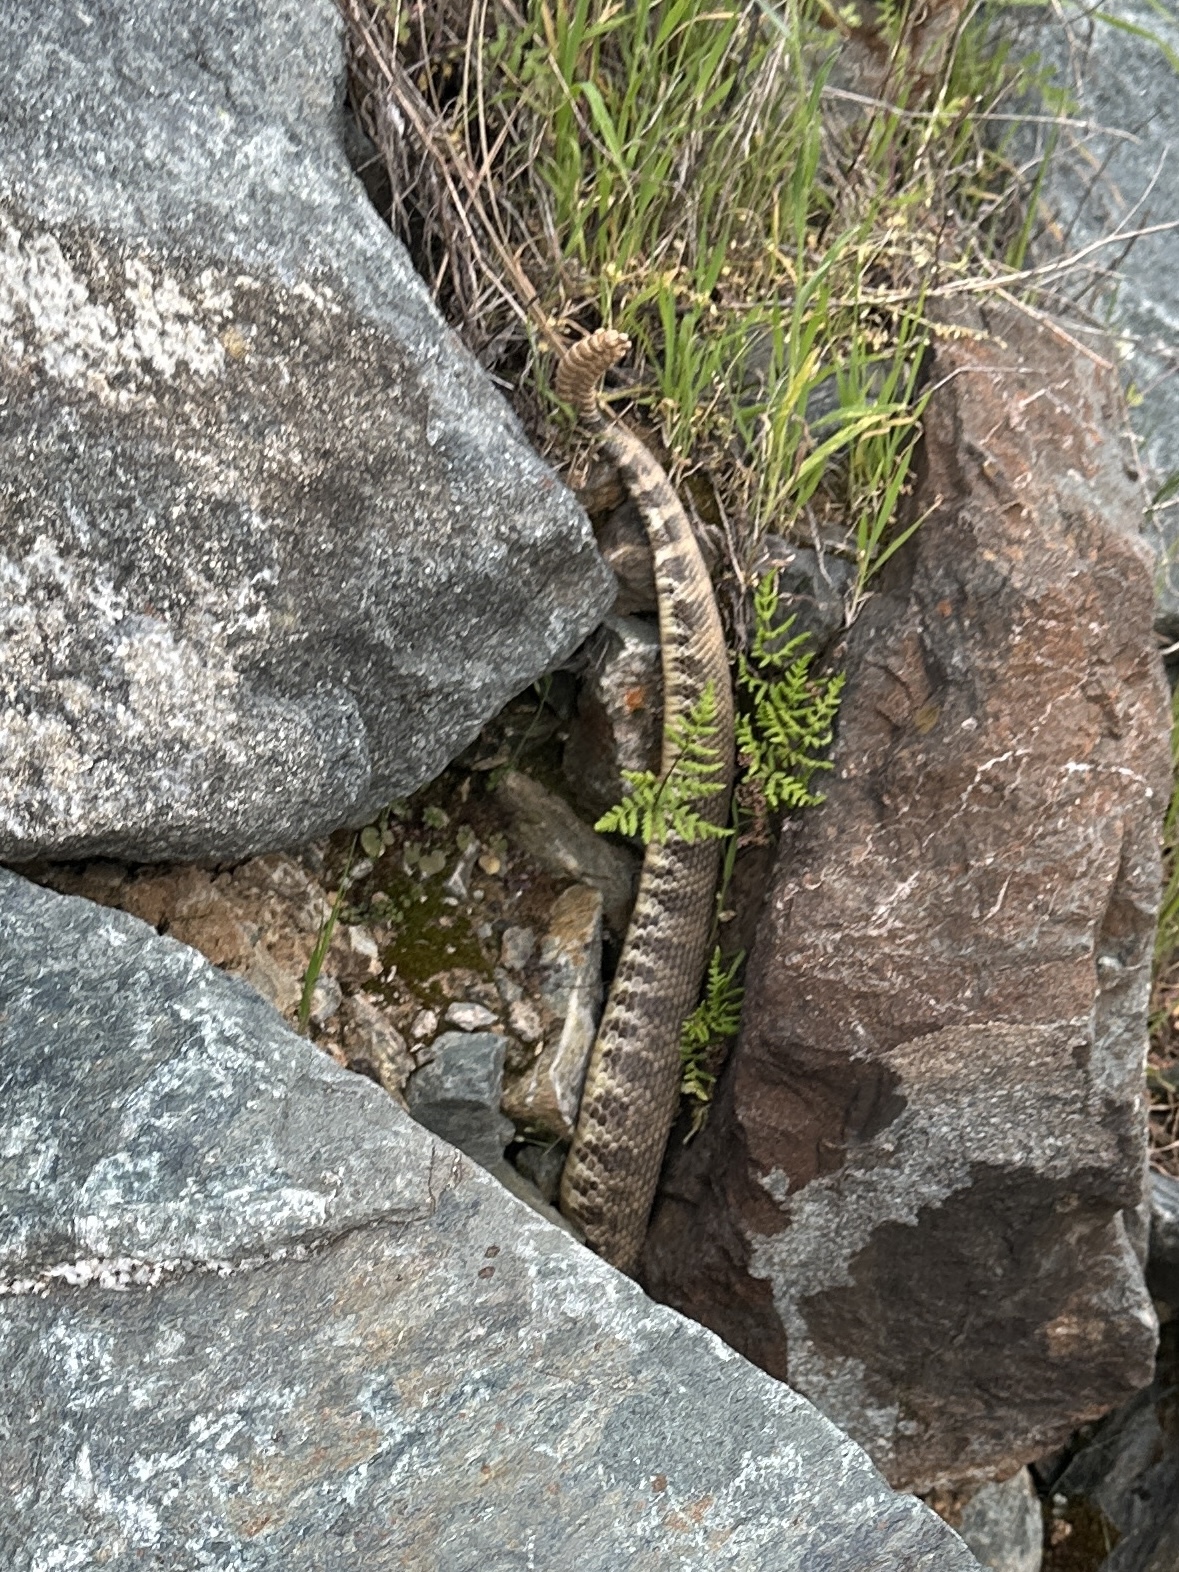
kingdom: Animalia
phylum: Chordata
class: Squamata
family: Viperidae
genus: Crotalus
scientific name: Crotalus oreganus
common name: Abyssus
